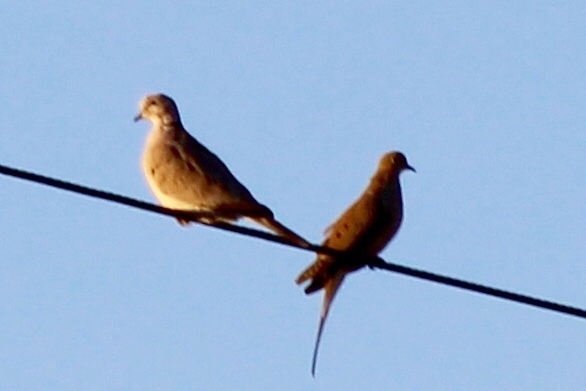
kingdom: Animalia
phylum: Chordata
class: Aves
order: Columbiformes
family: Columbidae
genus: Streptopelia
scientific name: Streptopelia decaocto
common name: Eurasian collared dove
